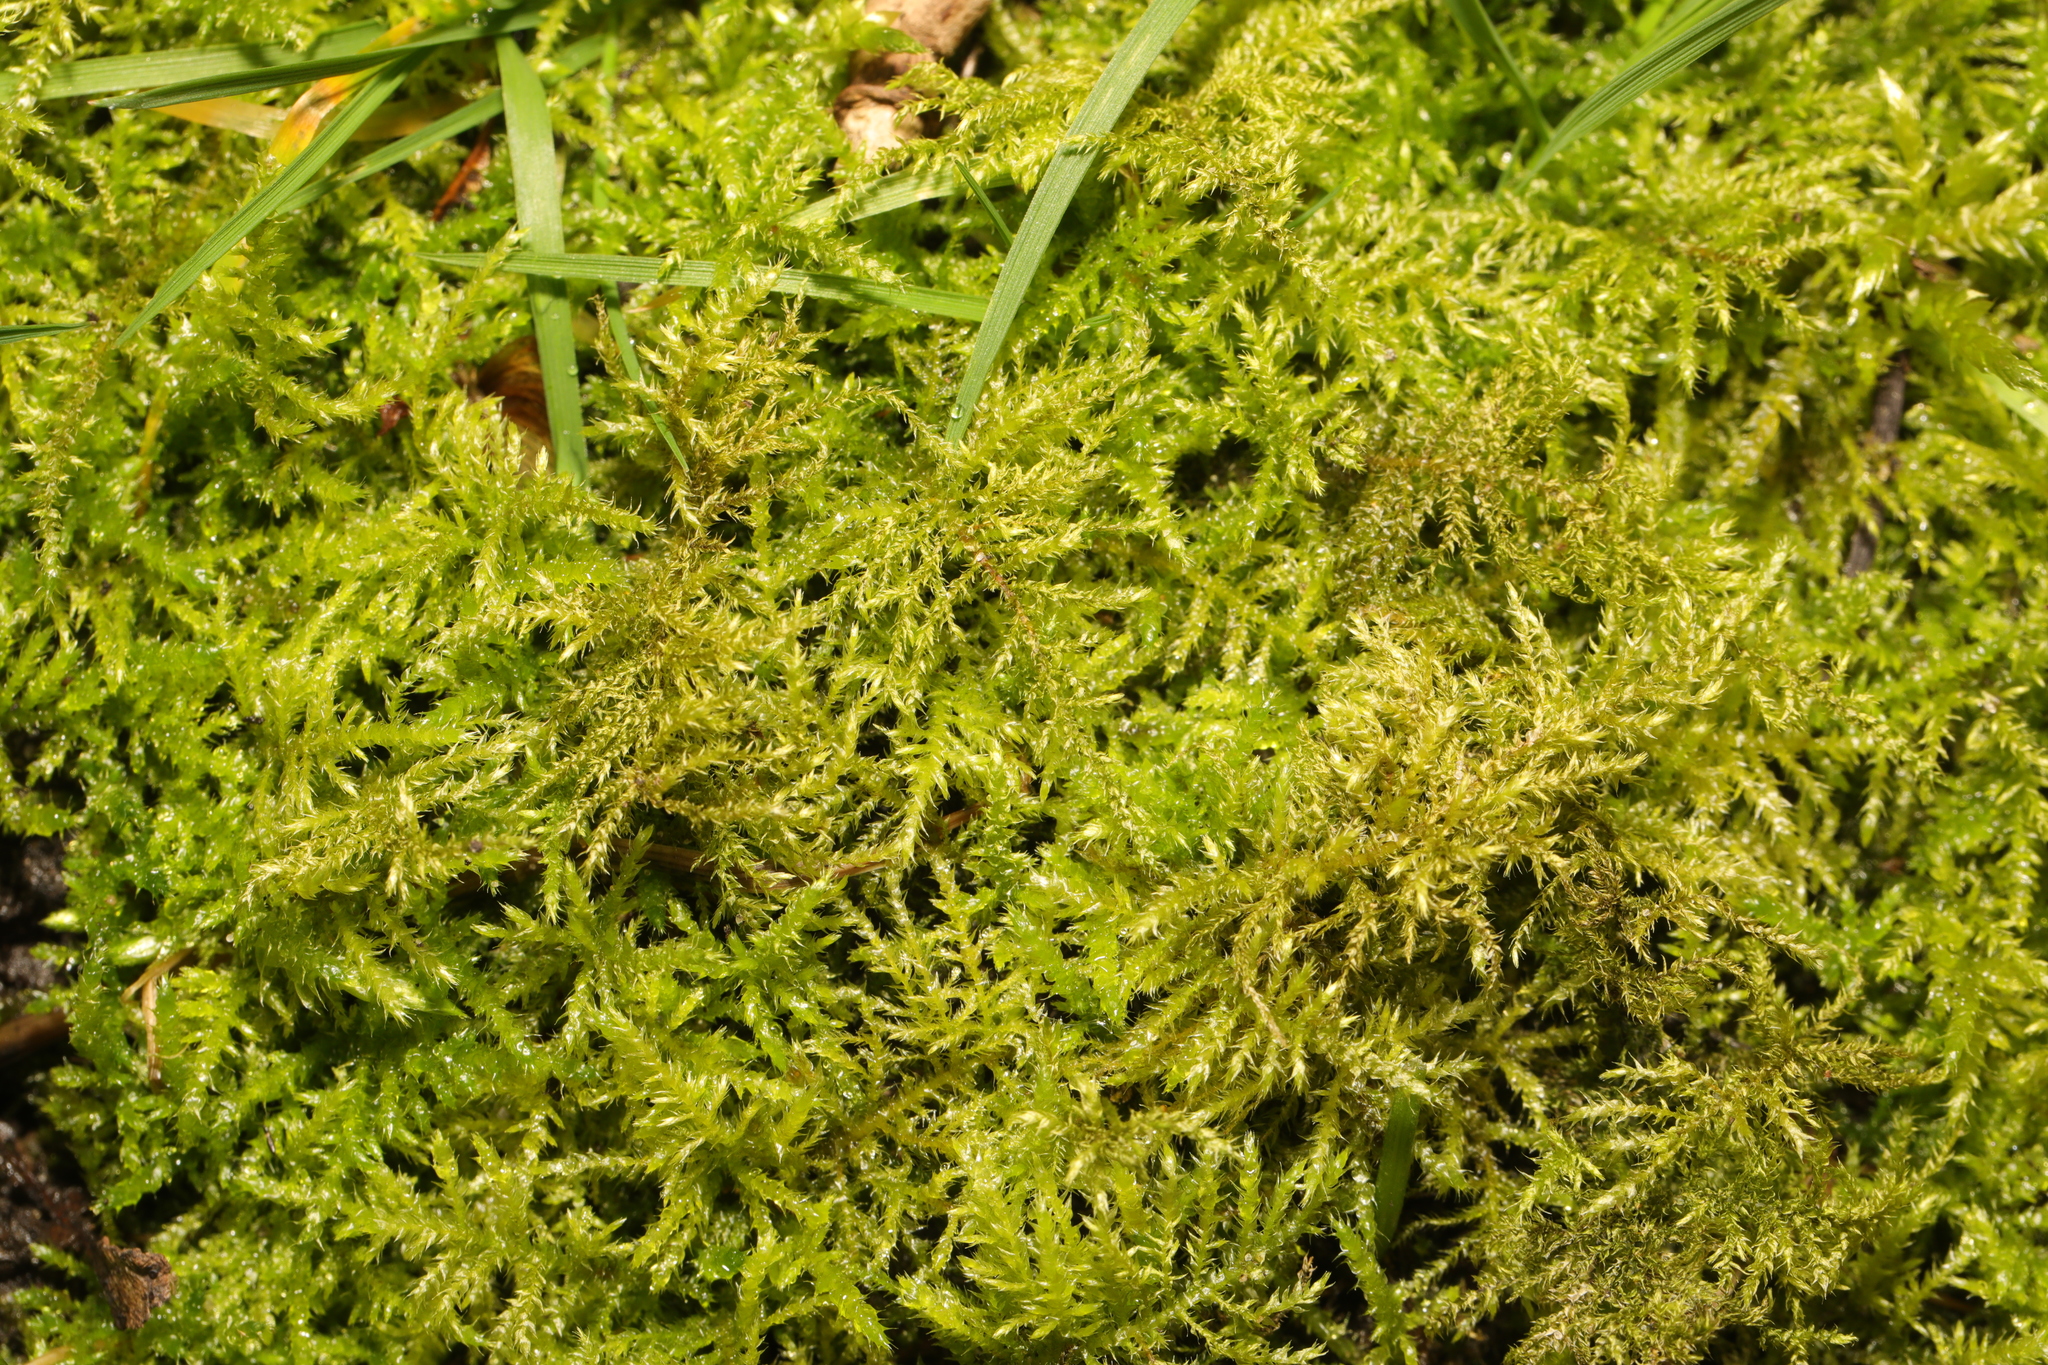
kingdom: Plantae
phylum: Bryophyta
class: Bryopsida
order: Hypnales
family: Brachytheciaceae
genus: Kindbergia
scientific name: Kindbergia praelonga
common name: Slender beaked moss
